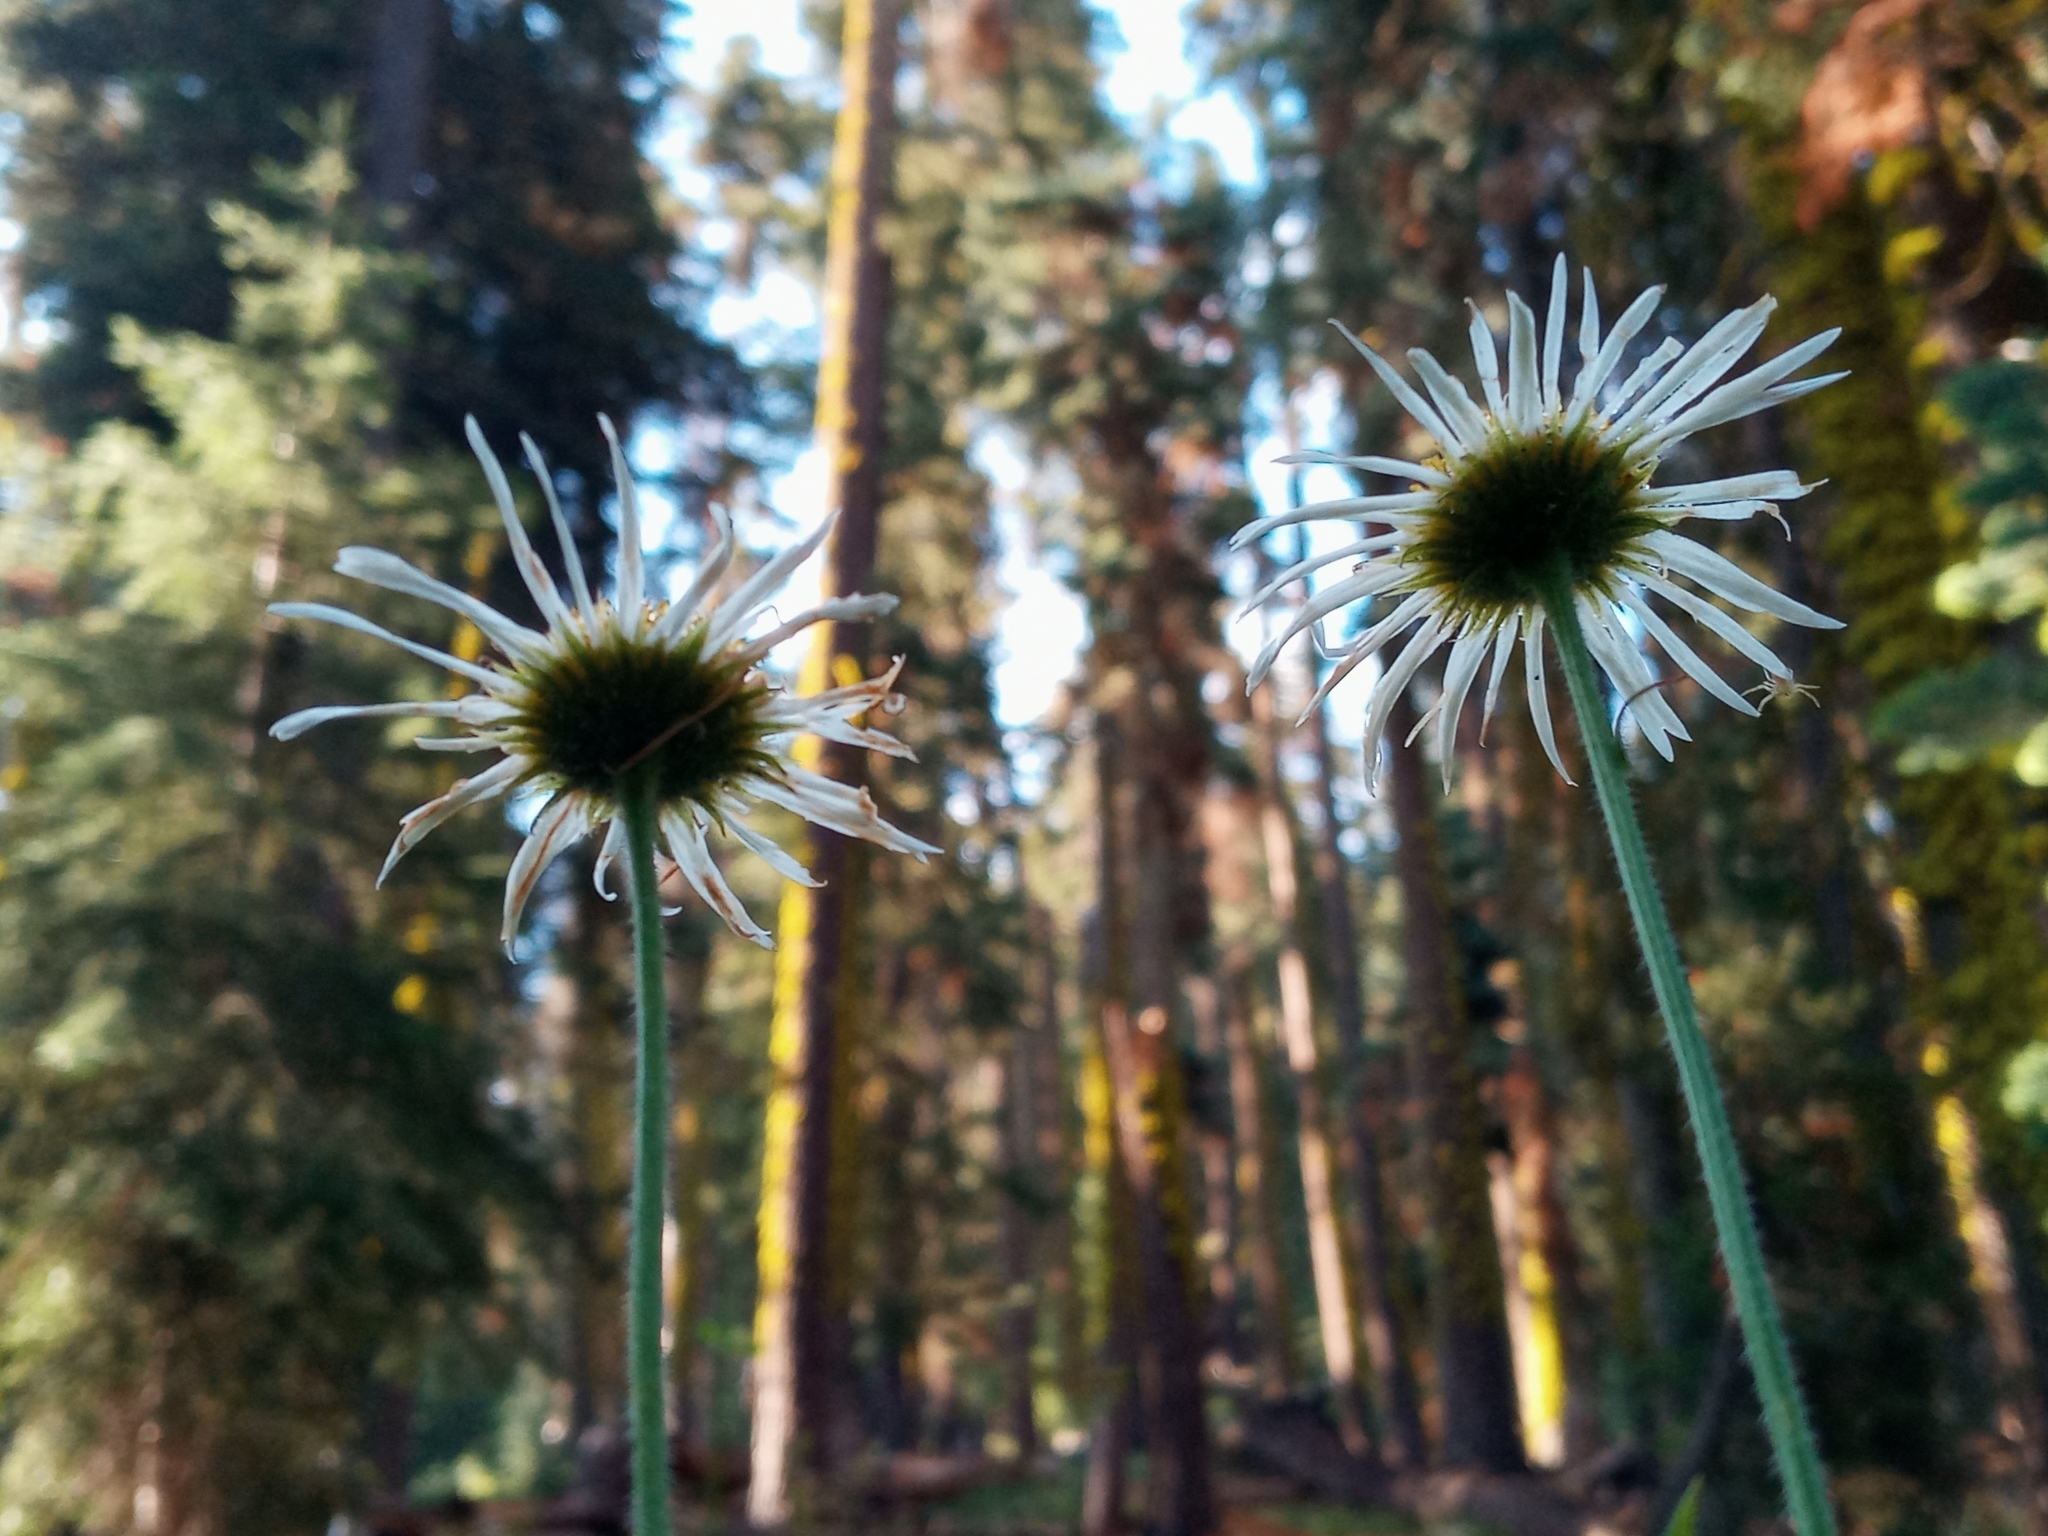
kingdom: Plantae
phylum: Tracheophyta
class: Magnoliopsida
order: Asterales
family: Asteraceae
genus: Erigeron
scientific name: Erigeron coulteri
